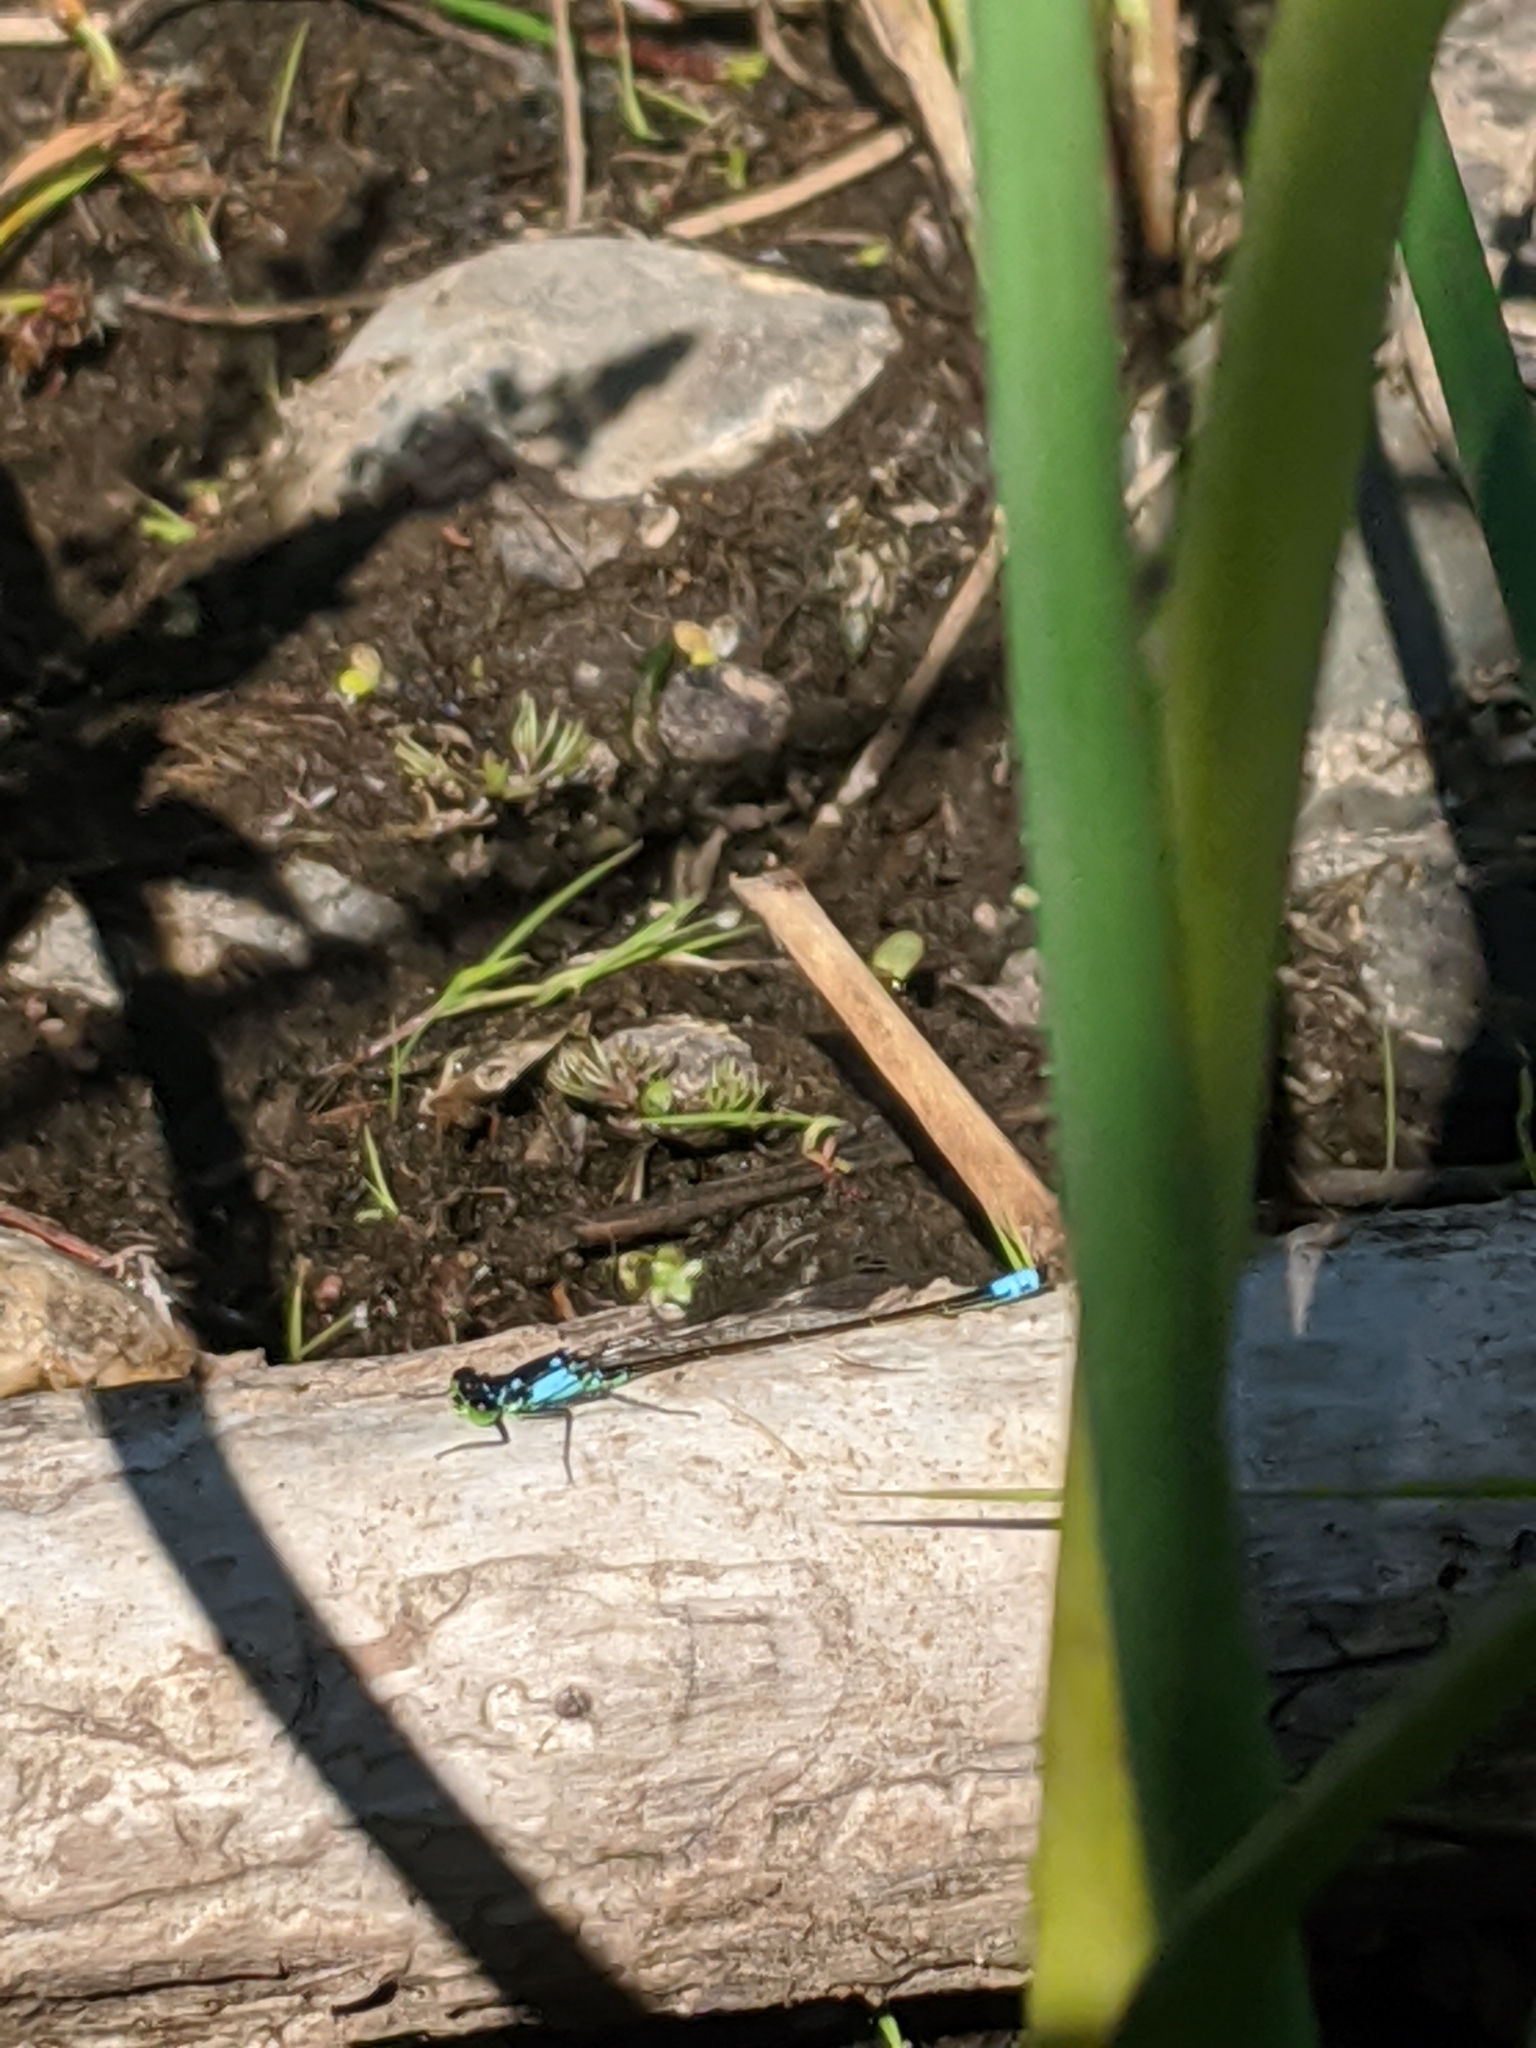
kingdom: Animalia
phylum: Arthropoda
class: Insecta
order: Odonata
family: Coenagrionidae
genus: Ischnura
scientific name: Ischnura cervula
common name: Pacific forktail
